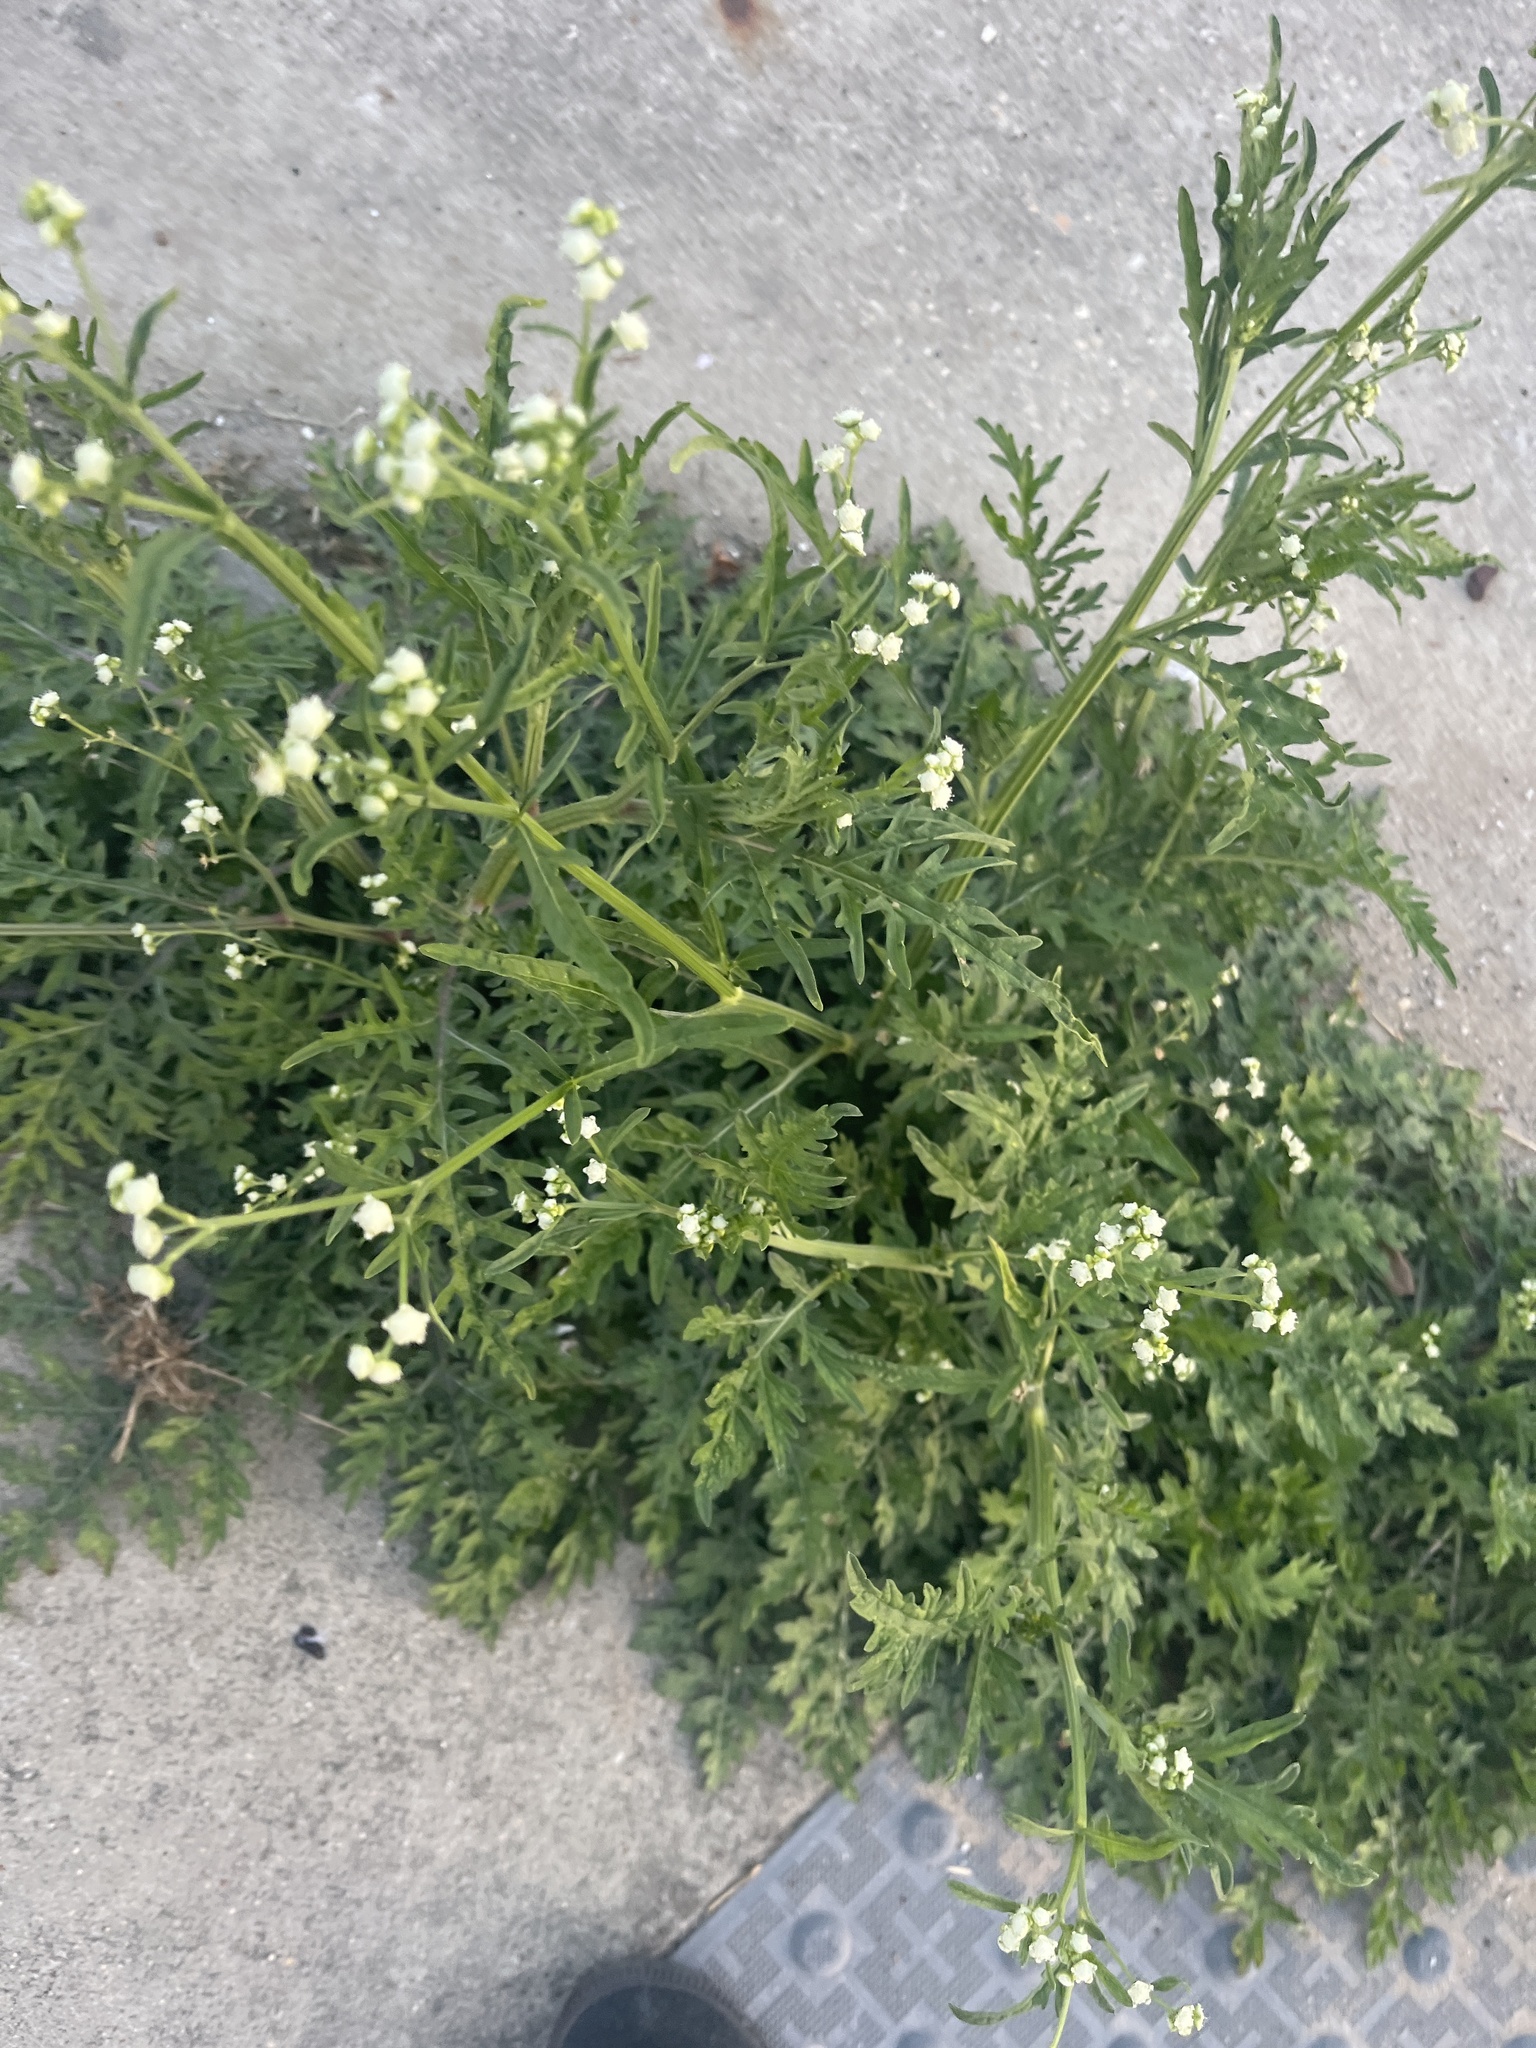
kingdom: Plantae
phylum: Tracheophyta
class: Magnoliopsida
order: Asterales
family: Asteraceae
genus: Parthenium
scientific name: Parthenium hysterophorus
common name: Santa maria feverfew
